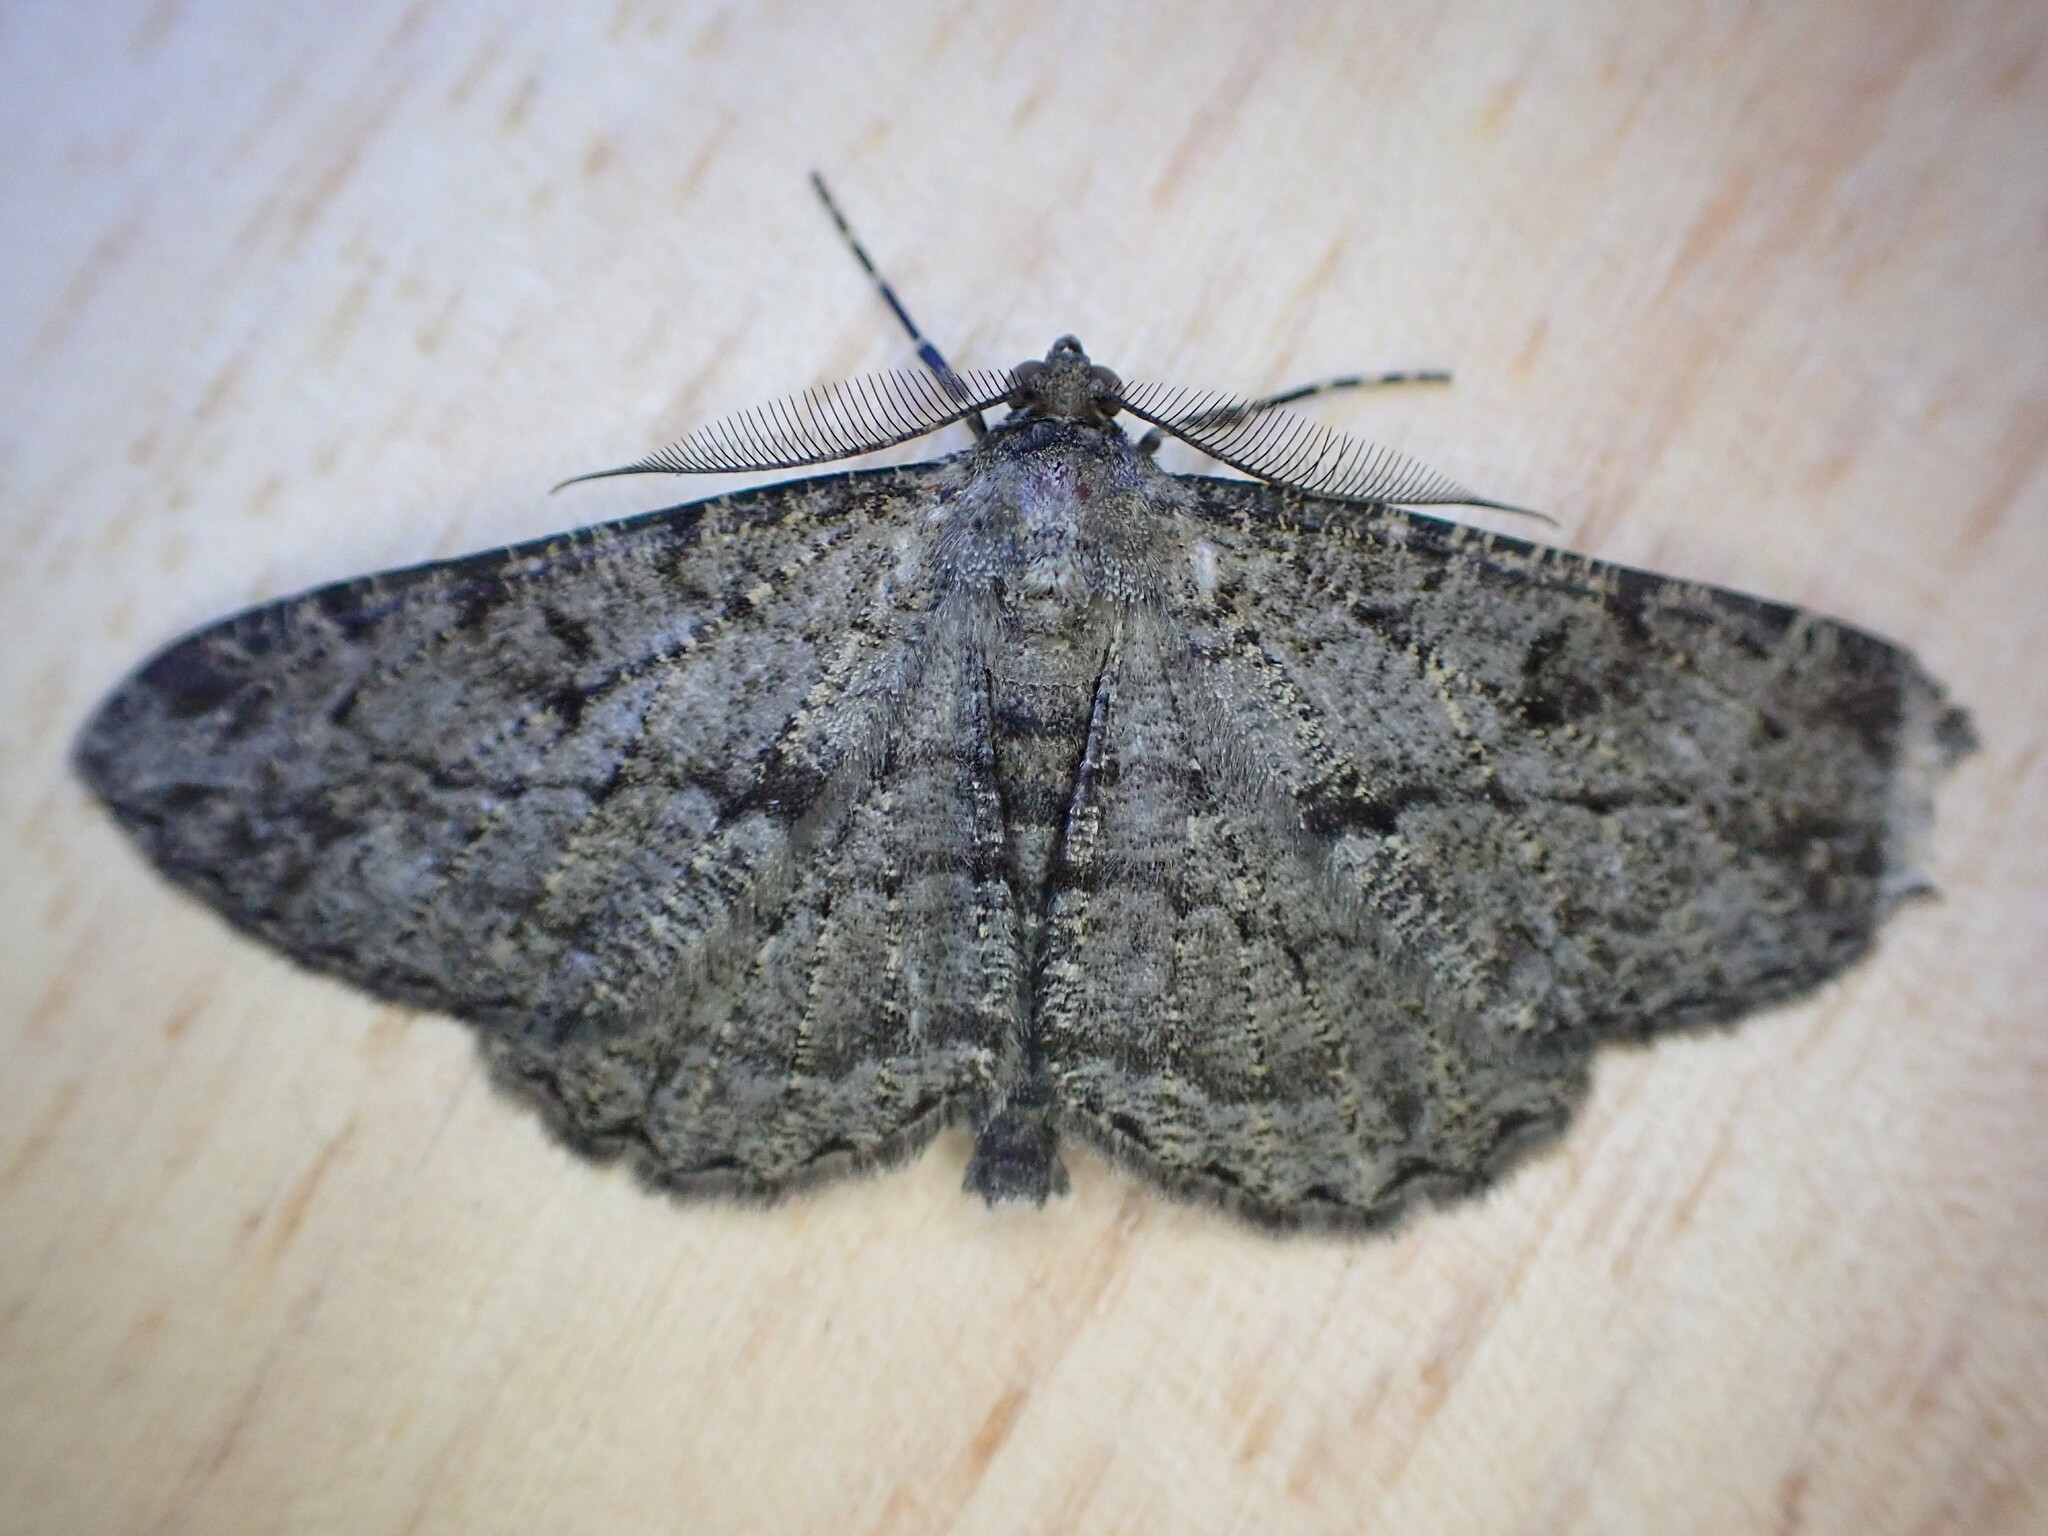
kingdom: Animalia
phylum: Arthropoda
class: Insecta
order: Lepidoptera
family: Geometridae
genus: Peribatodes
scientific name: Peribatodes rhomboidaria
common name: Willow beauty
